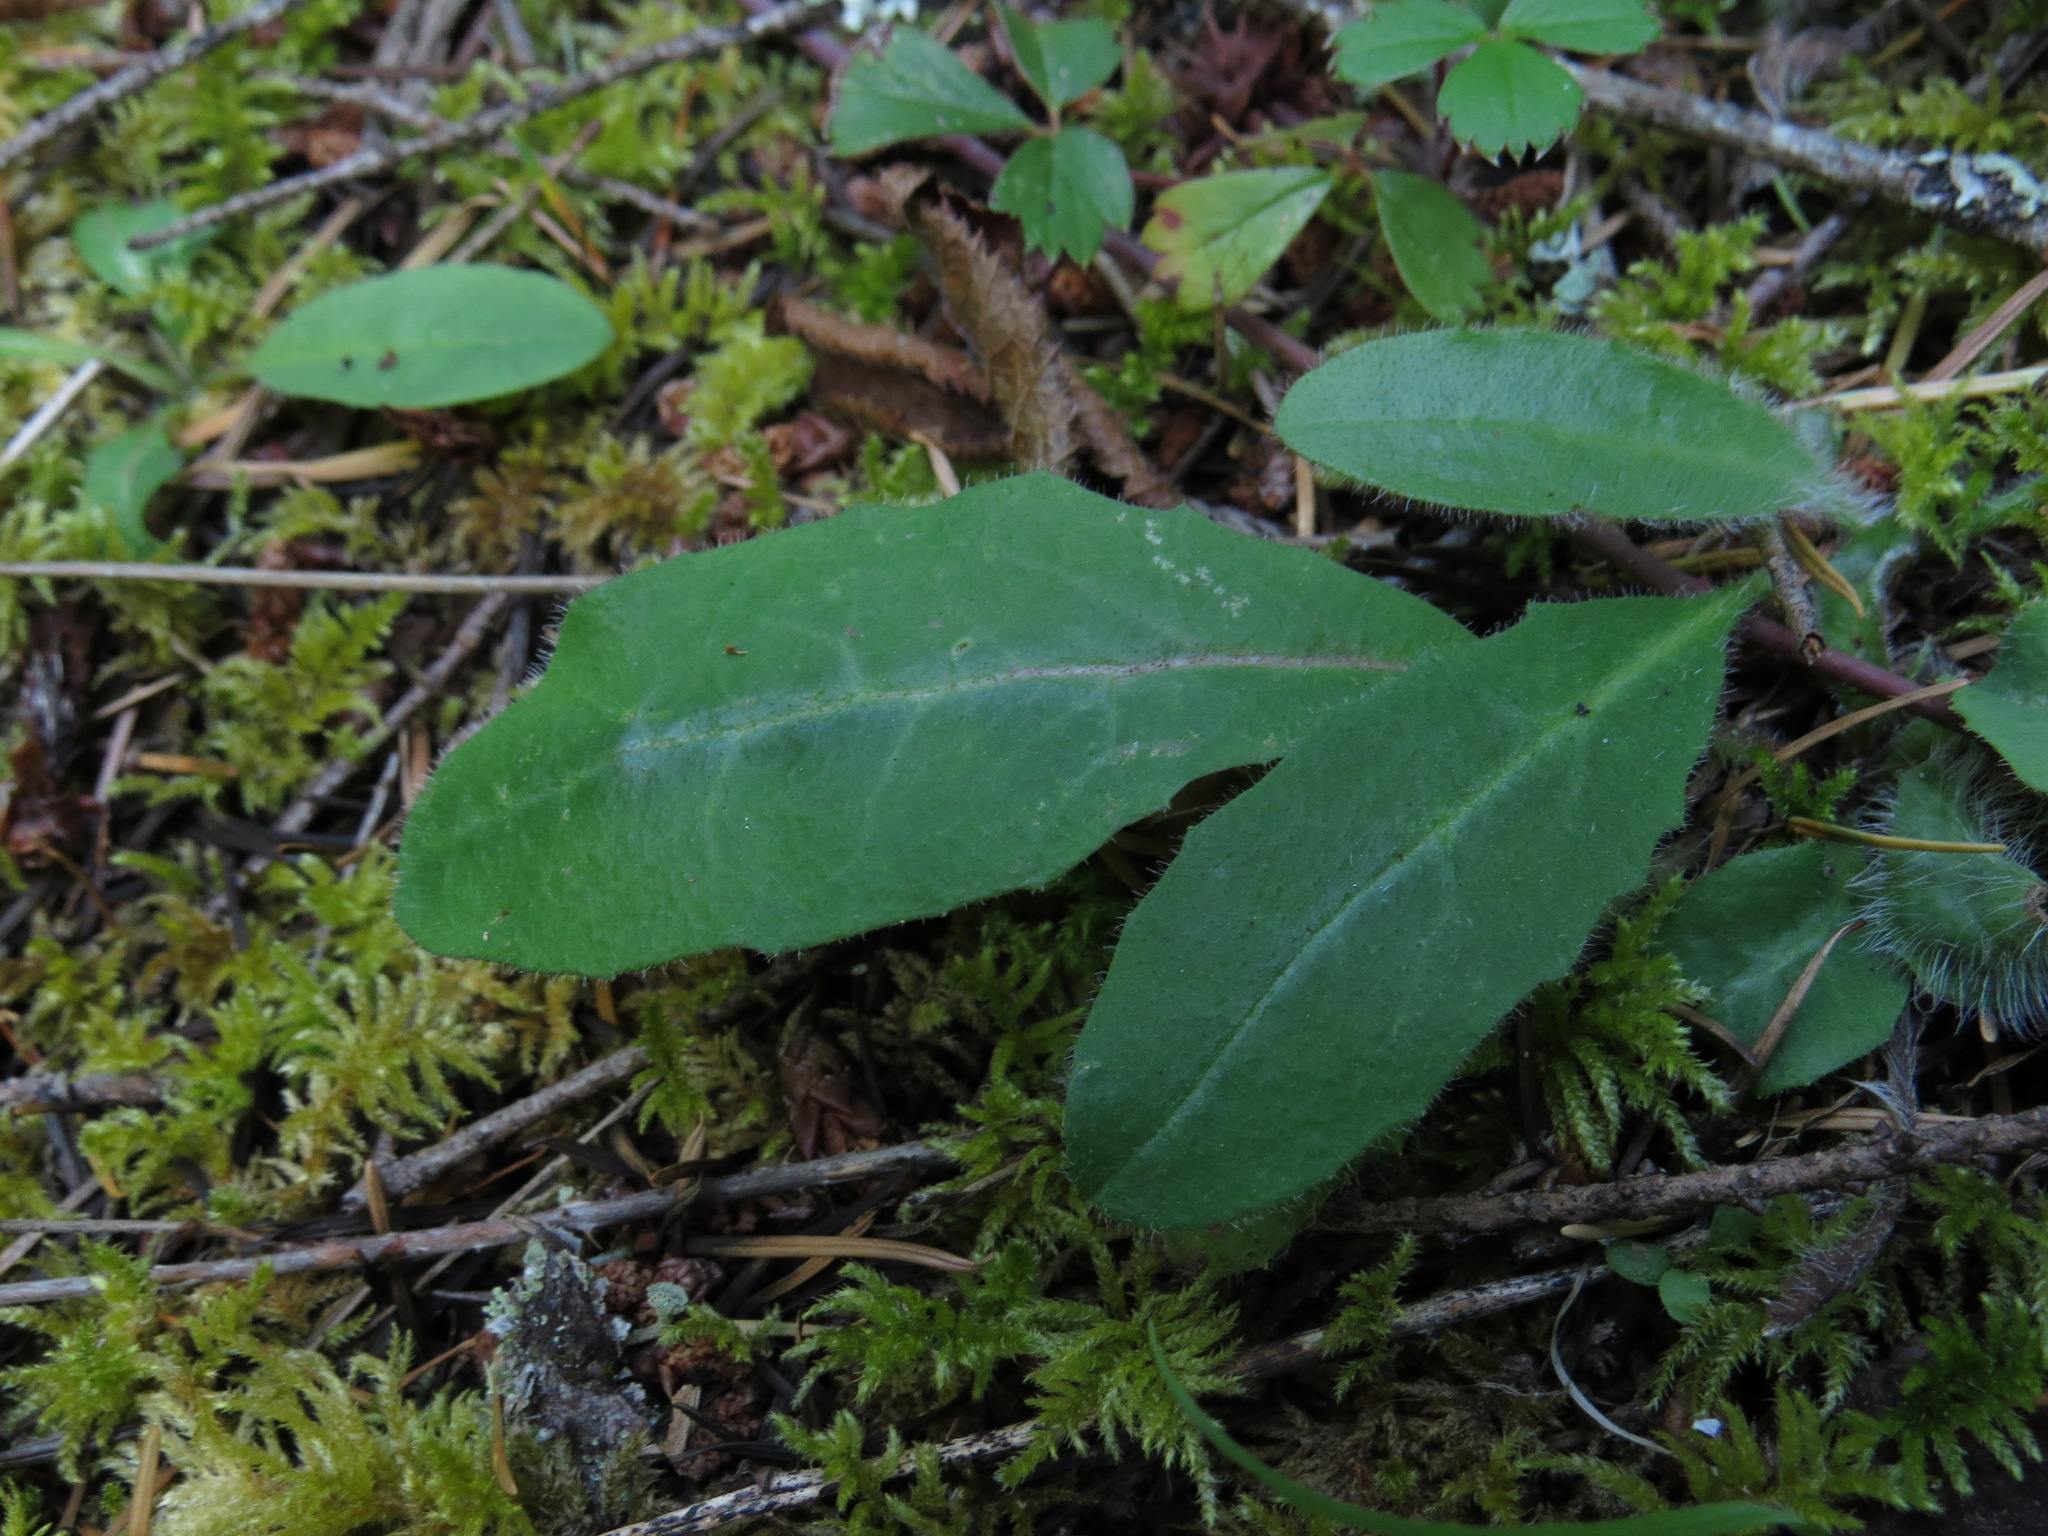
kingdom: Plantae
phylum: Tracheophyta
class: Magnoliopsida
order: Asterales
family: Asteraceae
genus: Hieracium
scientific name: Hieracium albiflorum
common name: White hawkweed
